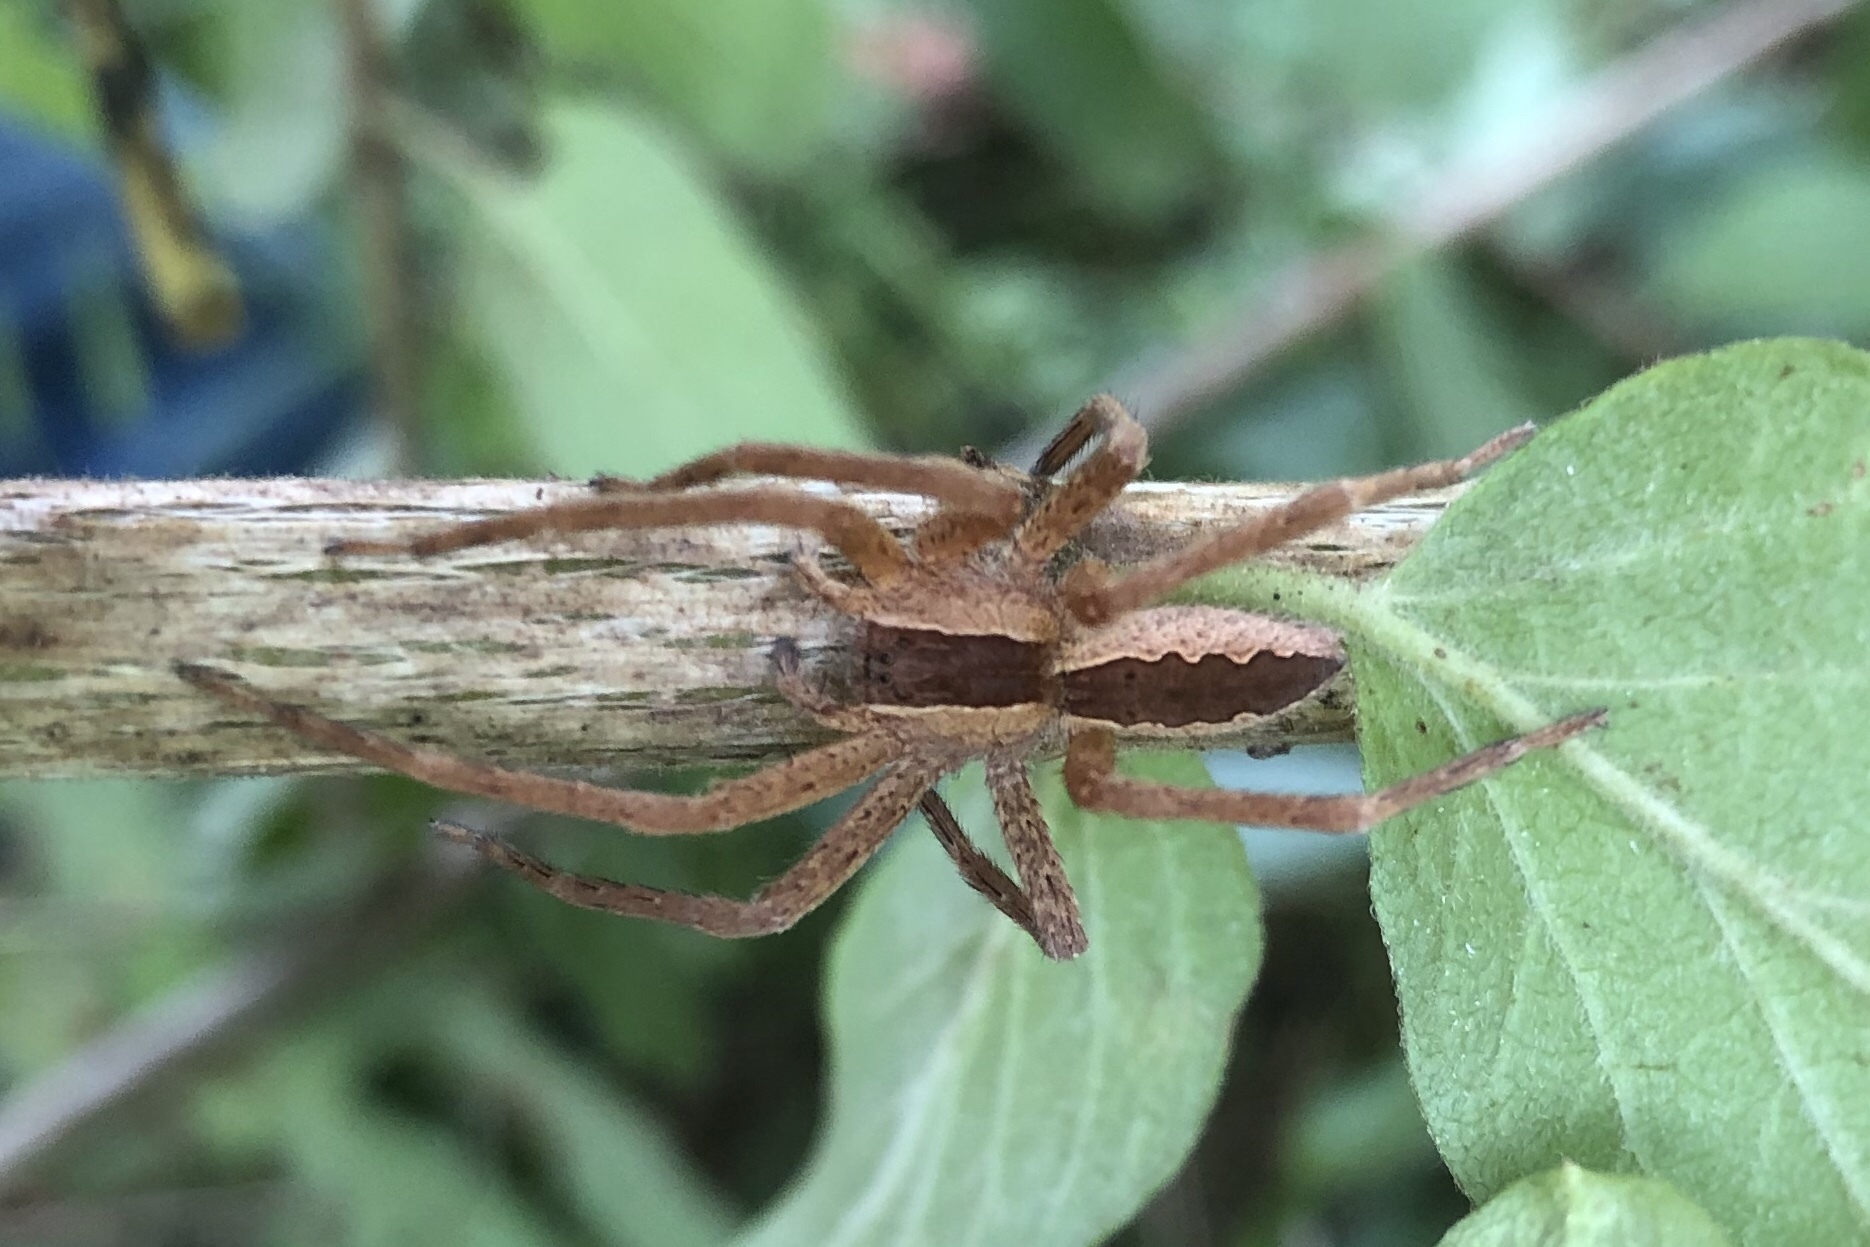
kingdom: Animalia
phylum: Arthropoda
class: Arachnida
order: Araneae
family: Pisauridae
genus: Pisaurina
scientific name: Pisaurina mira
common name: American nursery web spider
